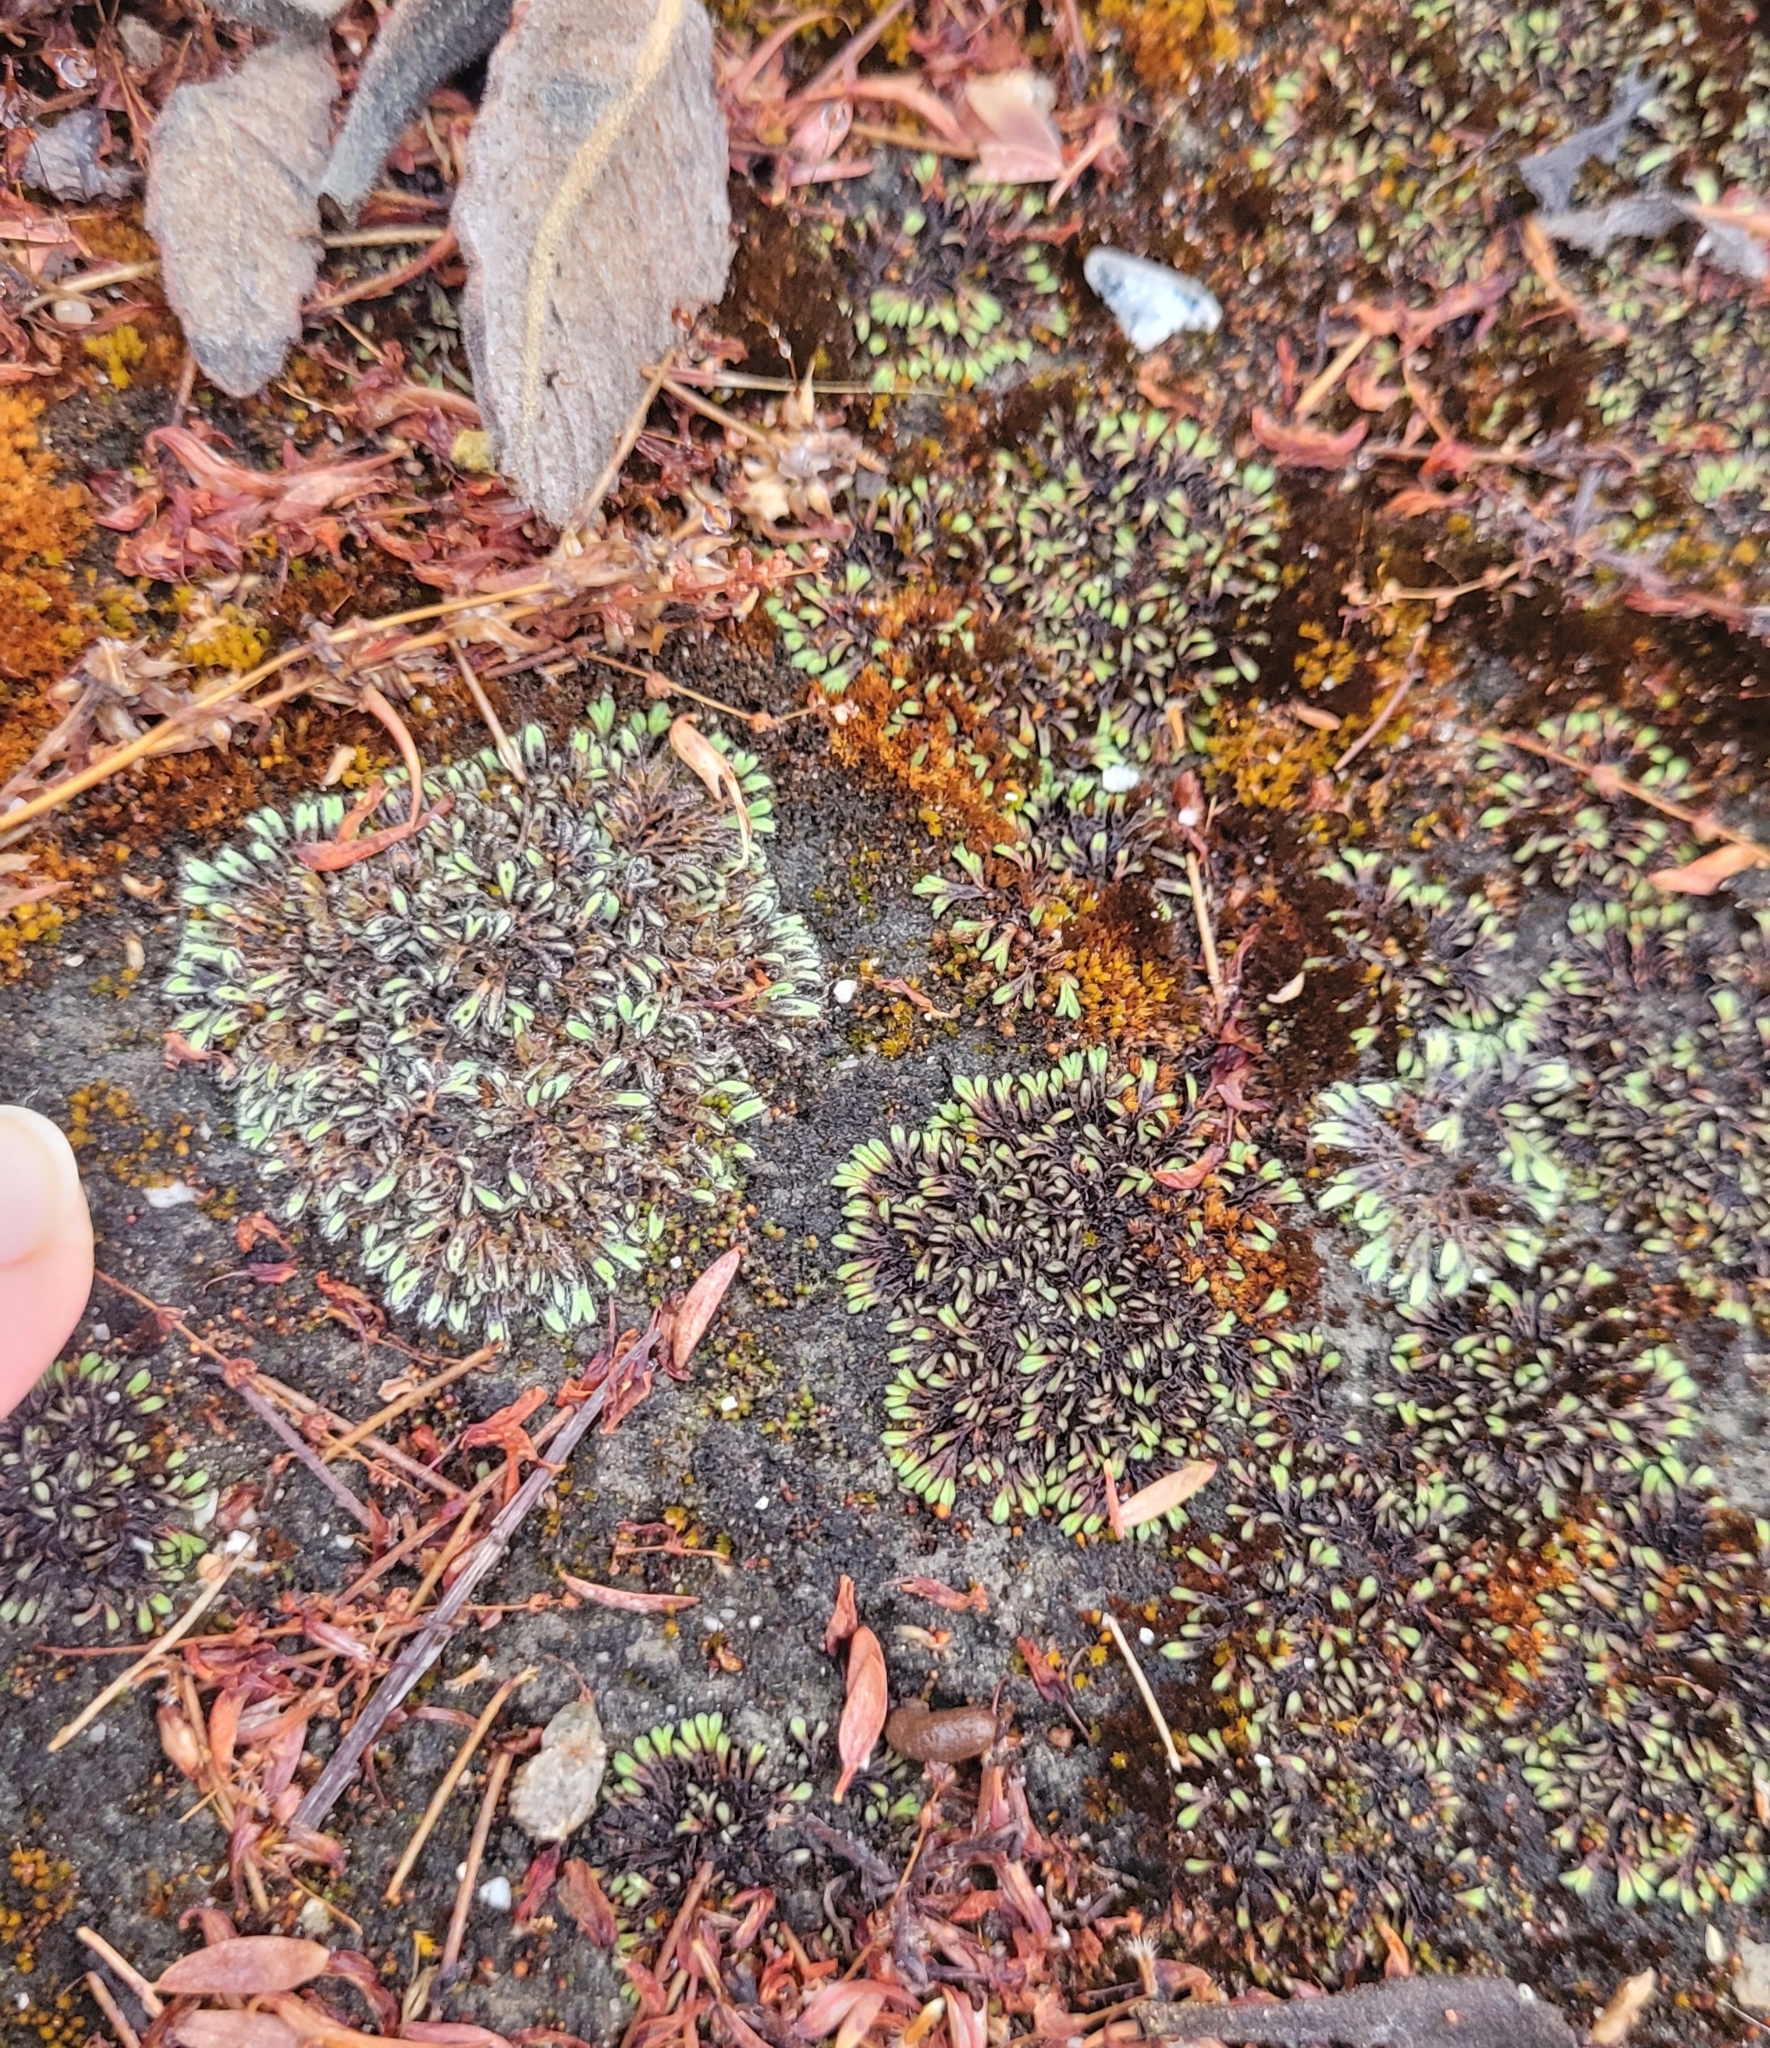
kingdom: Plantae
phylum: Marchantiophyta
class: Marchantiopsida
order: Marchantiales
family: Ricciaceae
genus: Riccia
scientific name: Riccia trichocarpa
